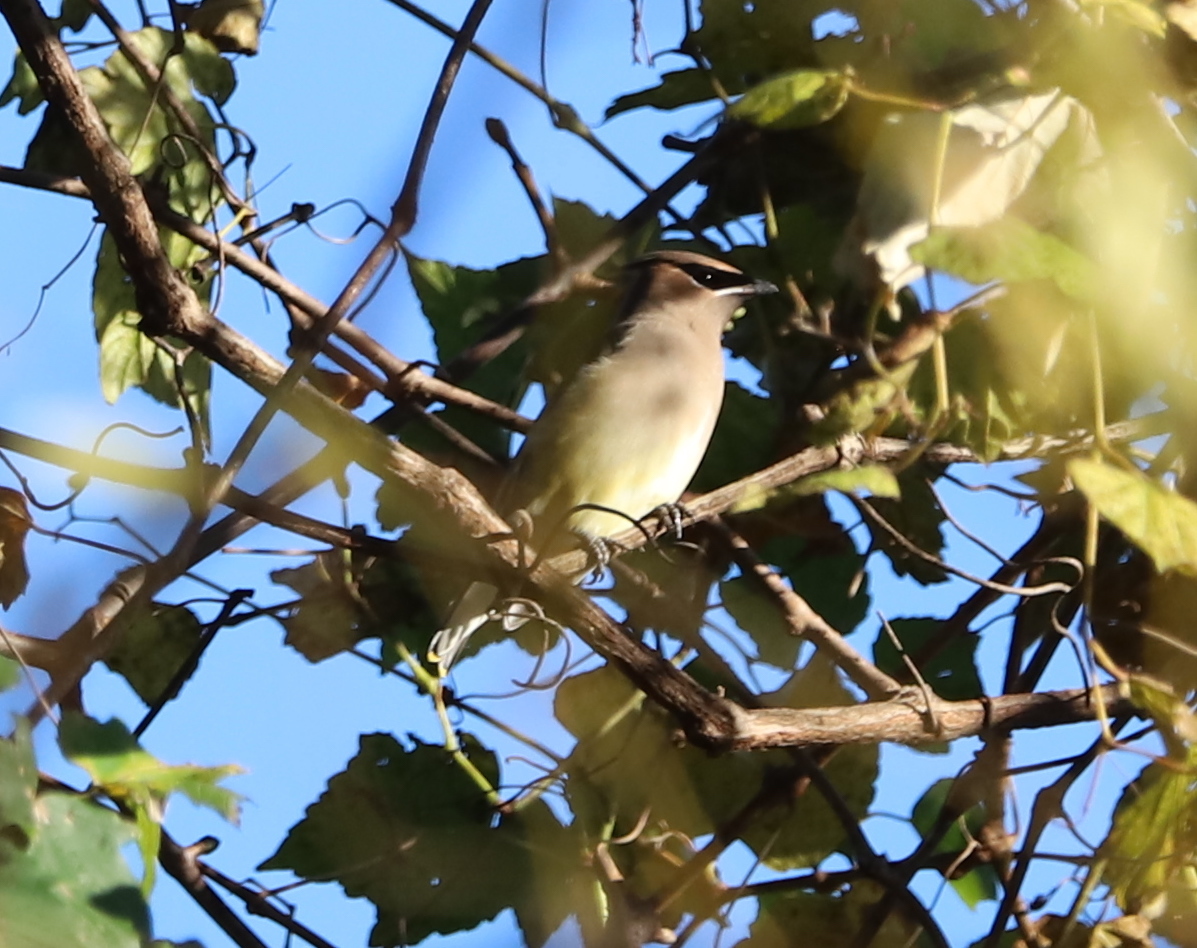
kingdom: Animalia
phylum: Chordata
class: Aves
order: Passeriformes
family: Bombycillidae
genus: Bombycilla
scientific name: Bombycilla cedrorum
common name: Cedar waxwing
